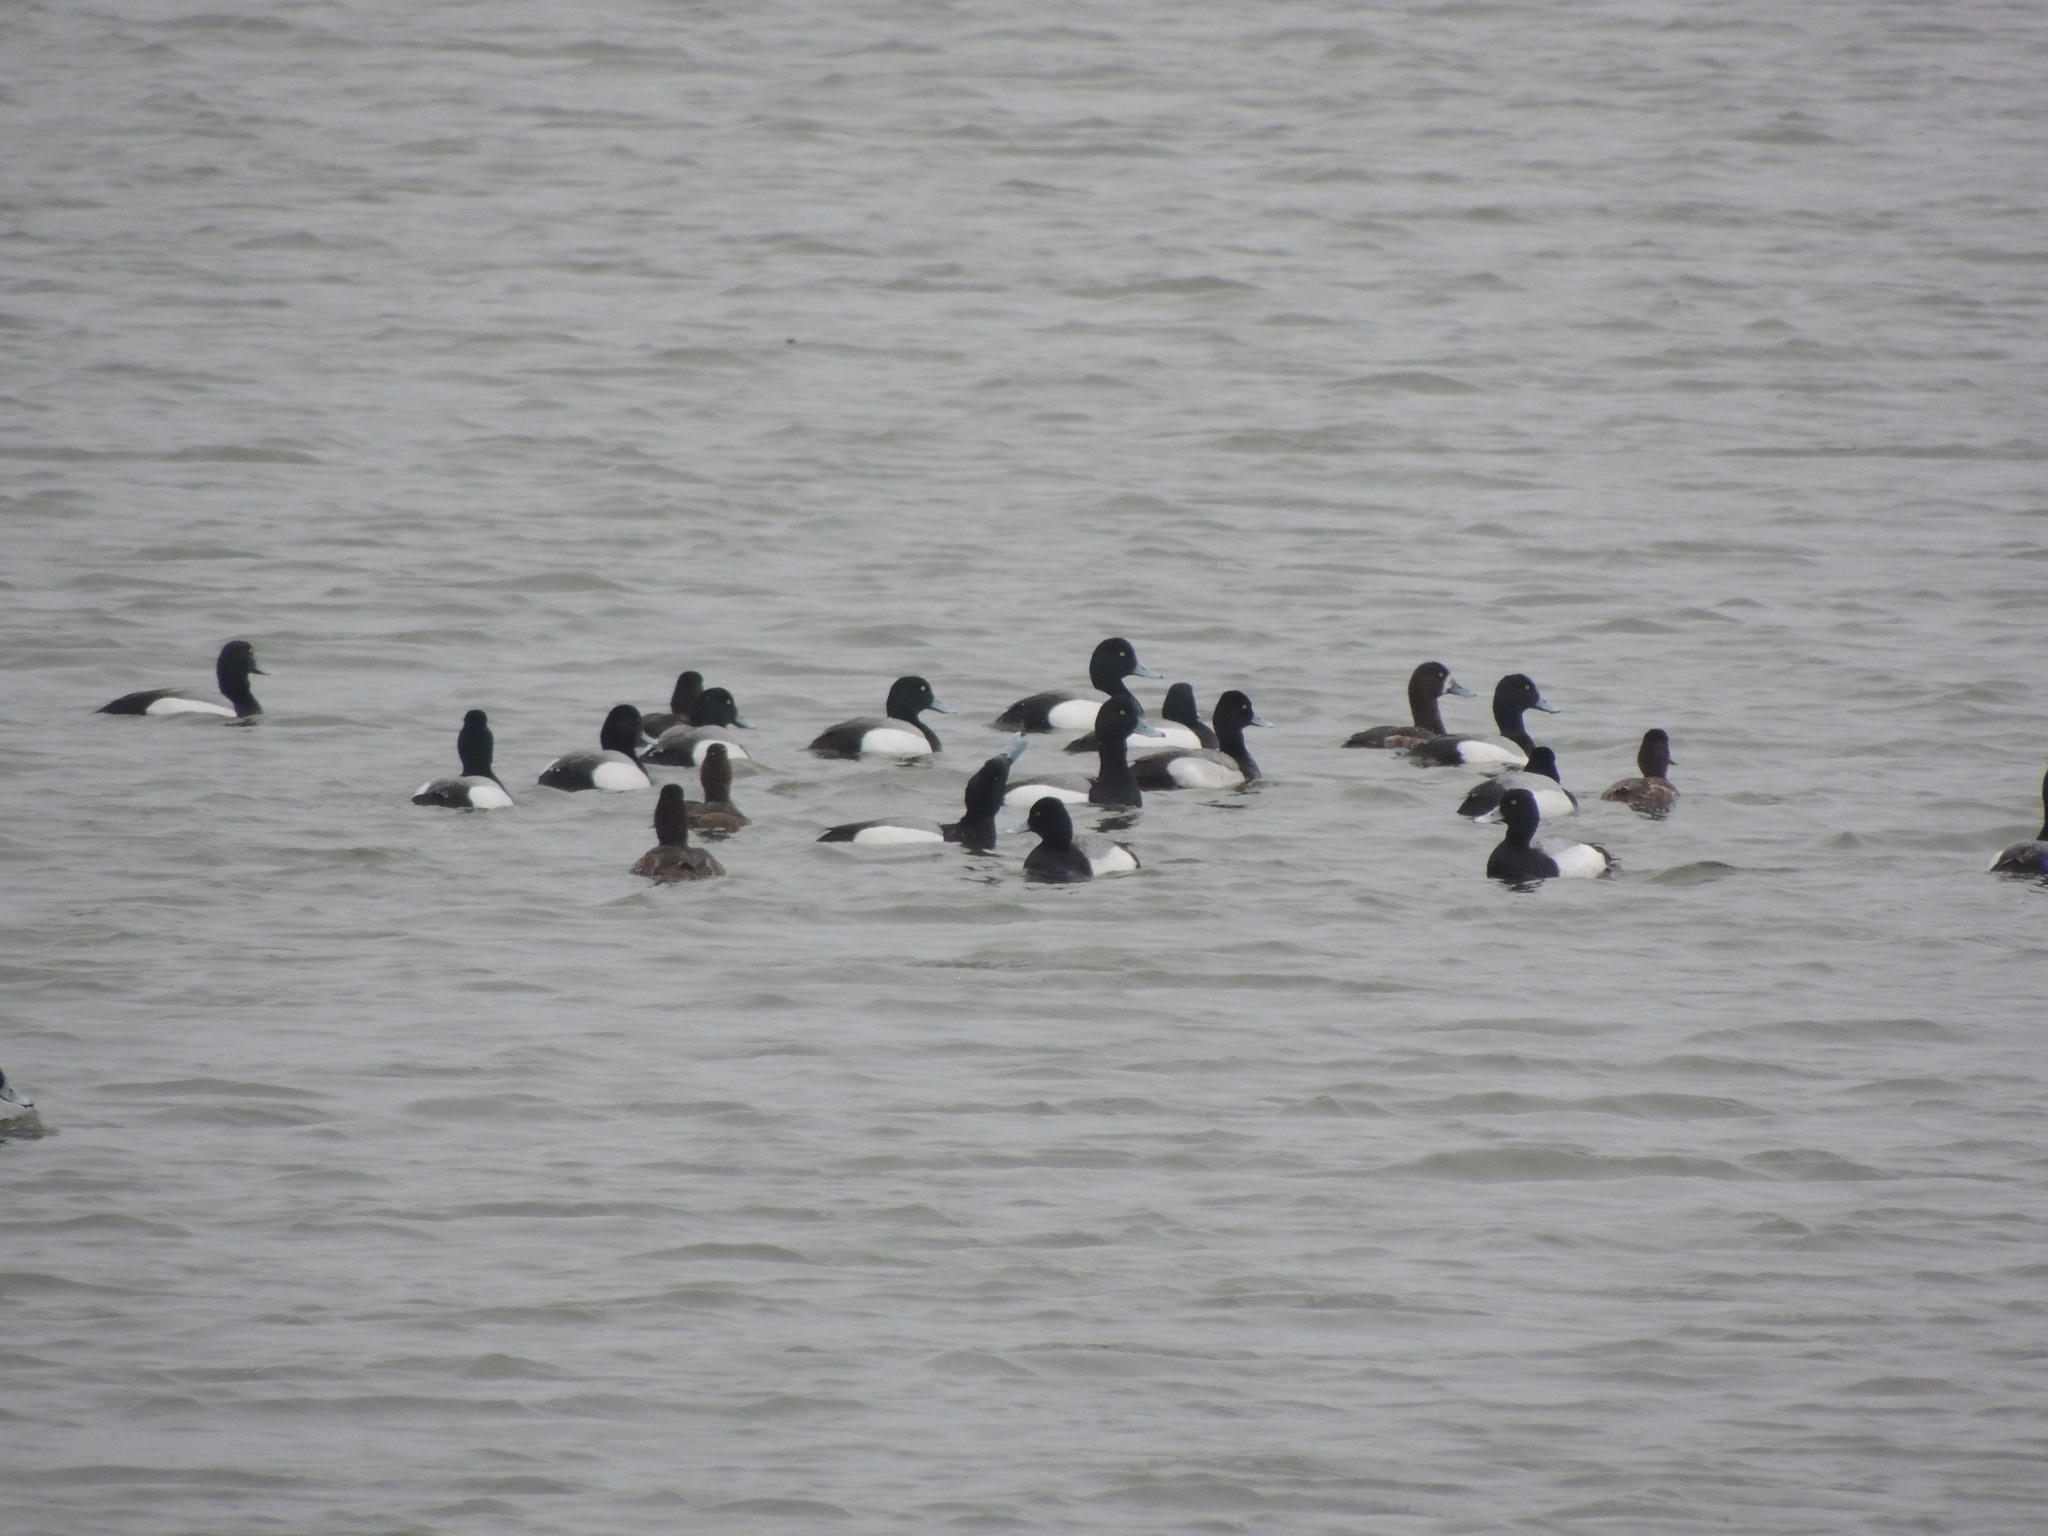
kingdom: Animalia
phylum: Chordata
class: Aves
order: Anseriformes
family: Anatidae
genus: Aythya
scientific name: Aythya affinis
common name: Lesser scaup
